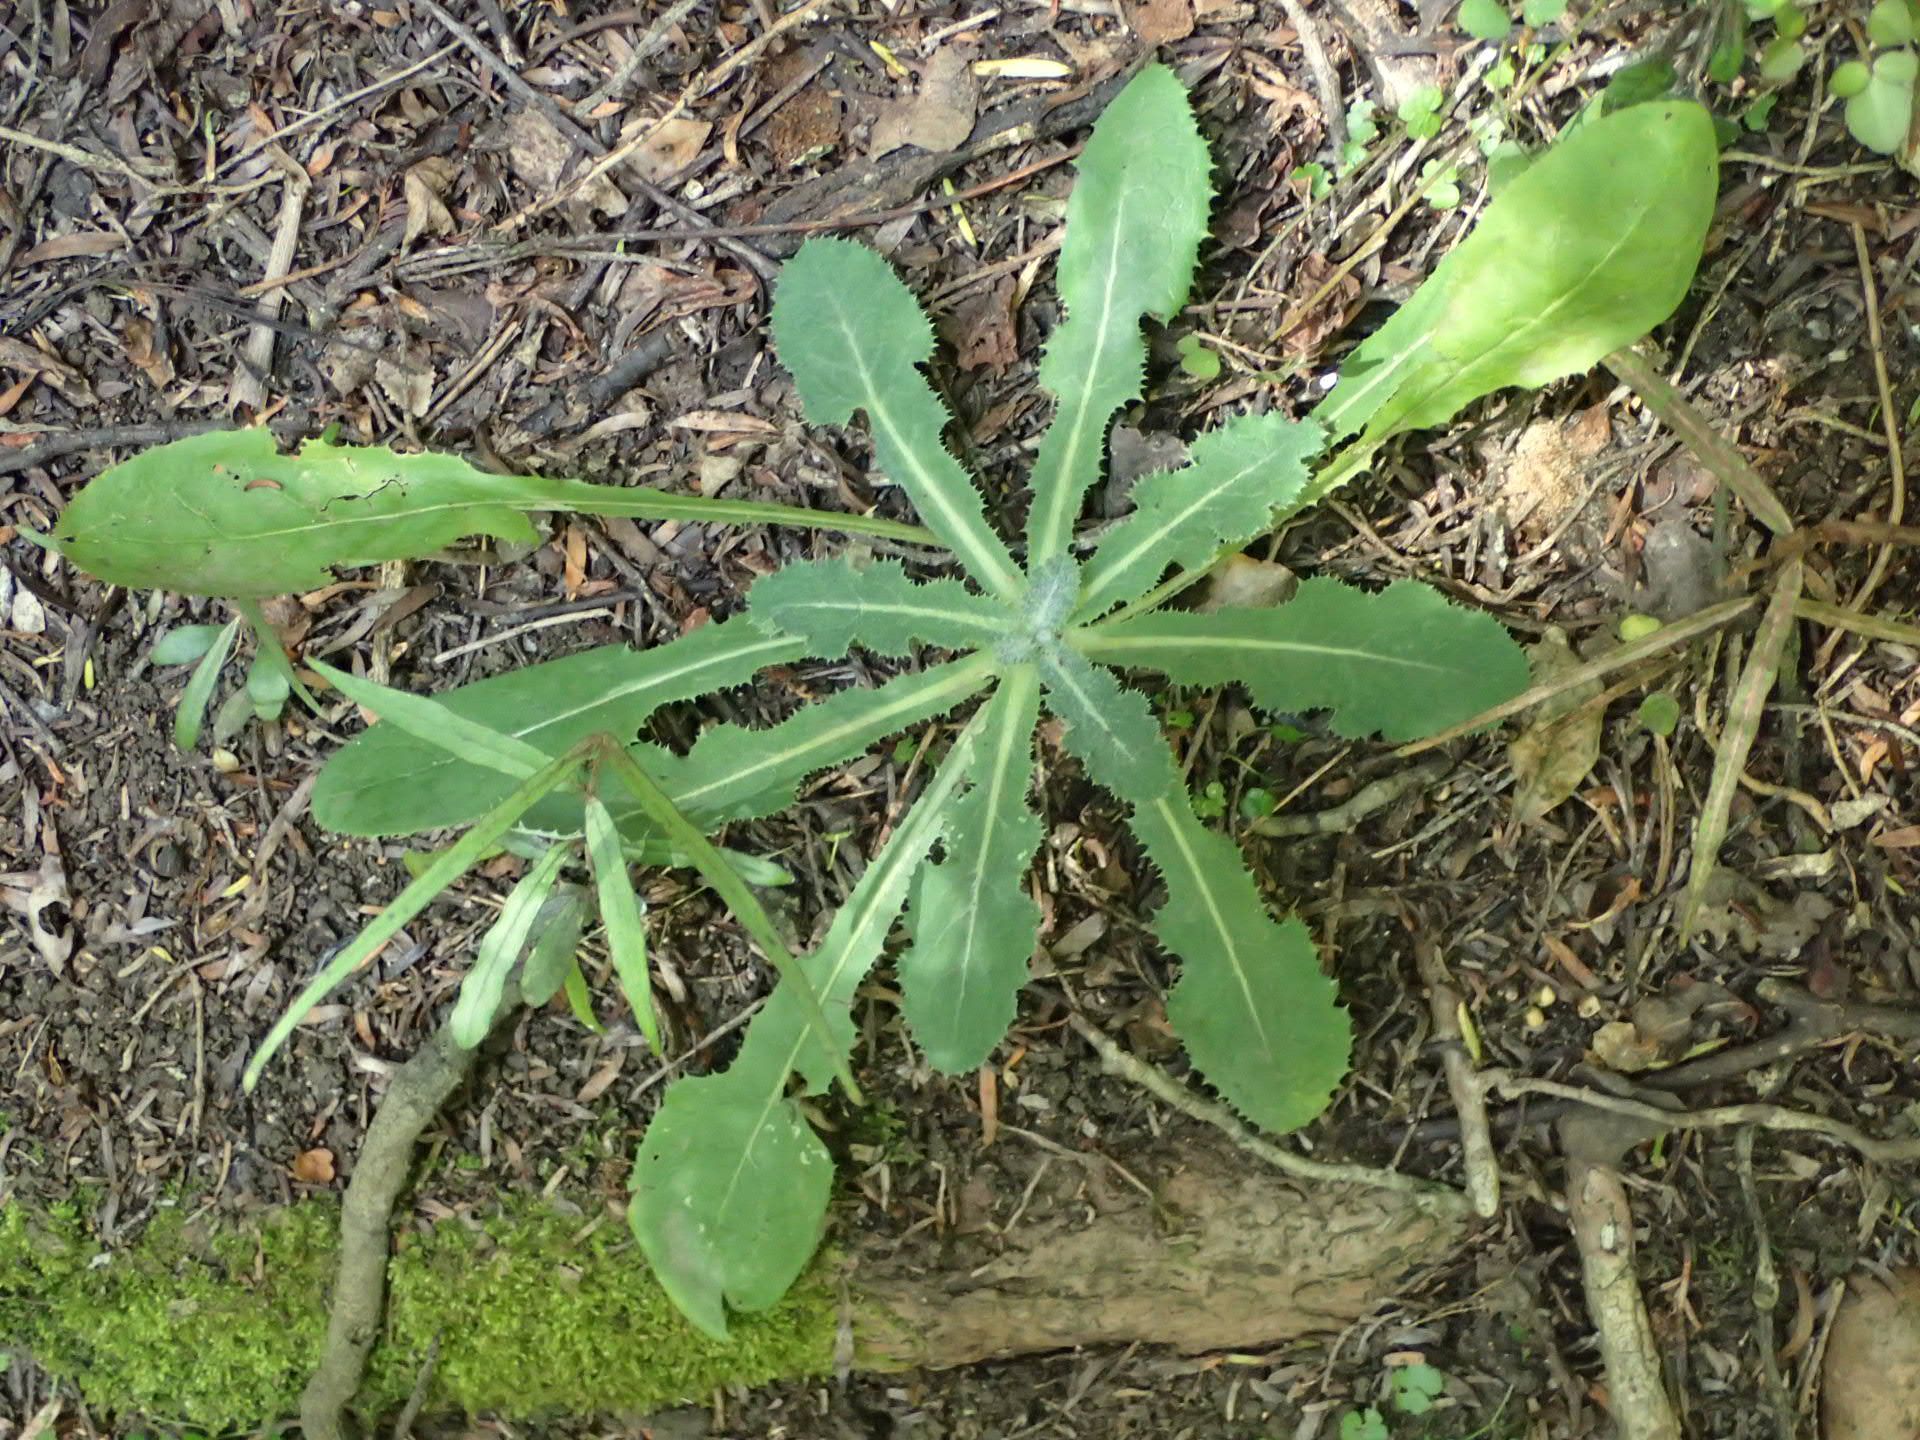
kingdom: Plantae
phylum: Tracheophyta
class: Magnoliopsida
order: Asterales
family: Asteraceae
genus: Sonchus
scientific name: Sonchus asper
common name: Prickly sow-thistle
